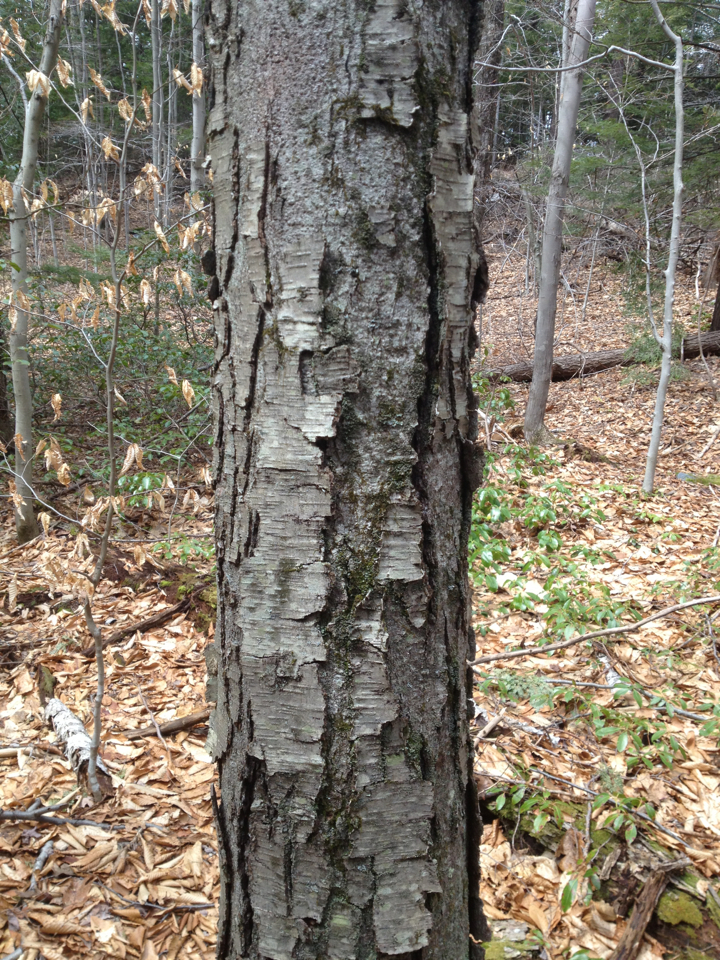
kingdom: Plantae
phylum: Tracheophyta
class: Magnoliopsida
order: Fagales
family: Betulaceae
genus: Betula
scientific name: Betula lenta
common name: Black birch
